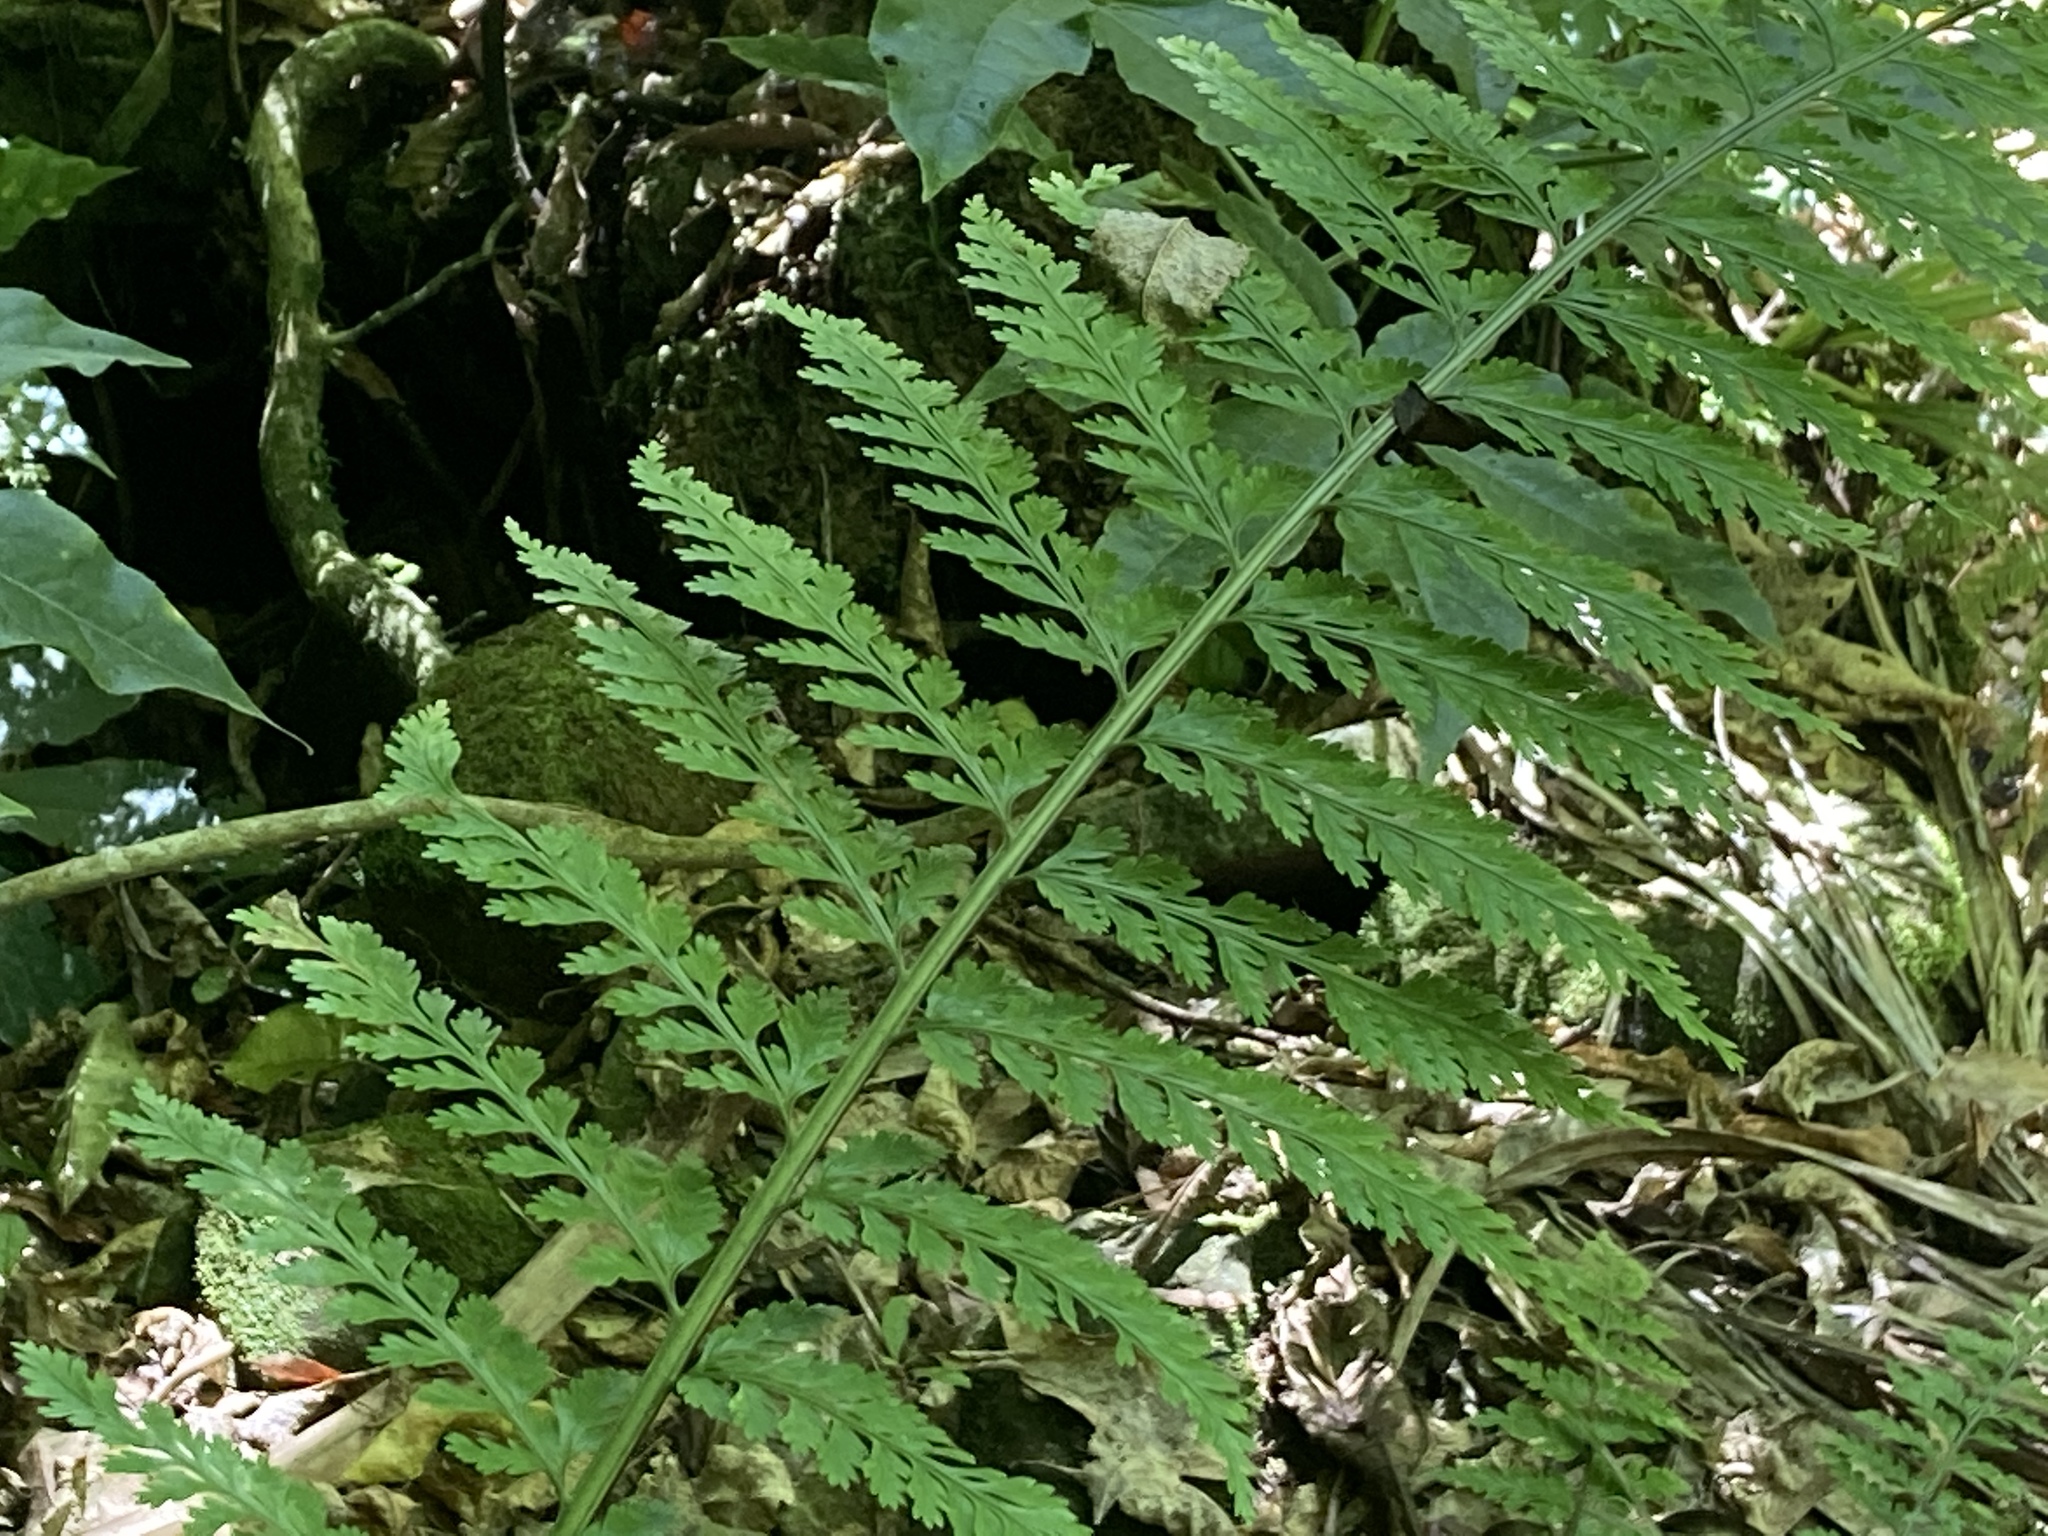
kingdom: Plantae
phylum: Tracheophyta
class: Polypodiopsida
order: Polypodiales
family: Aspleniaceae
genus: Asplenium
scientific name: Asplenium bulbiferum
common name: Mother fern
